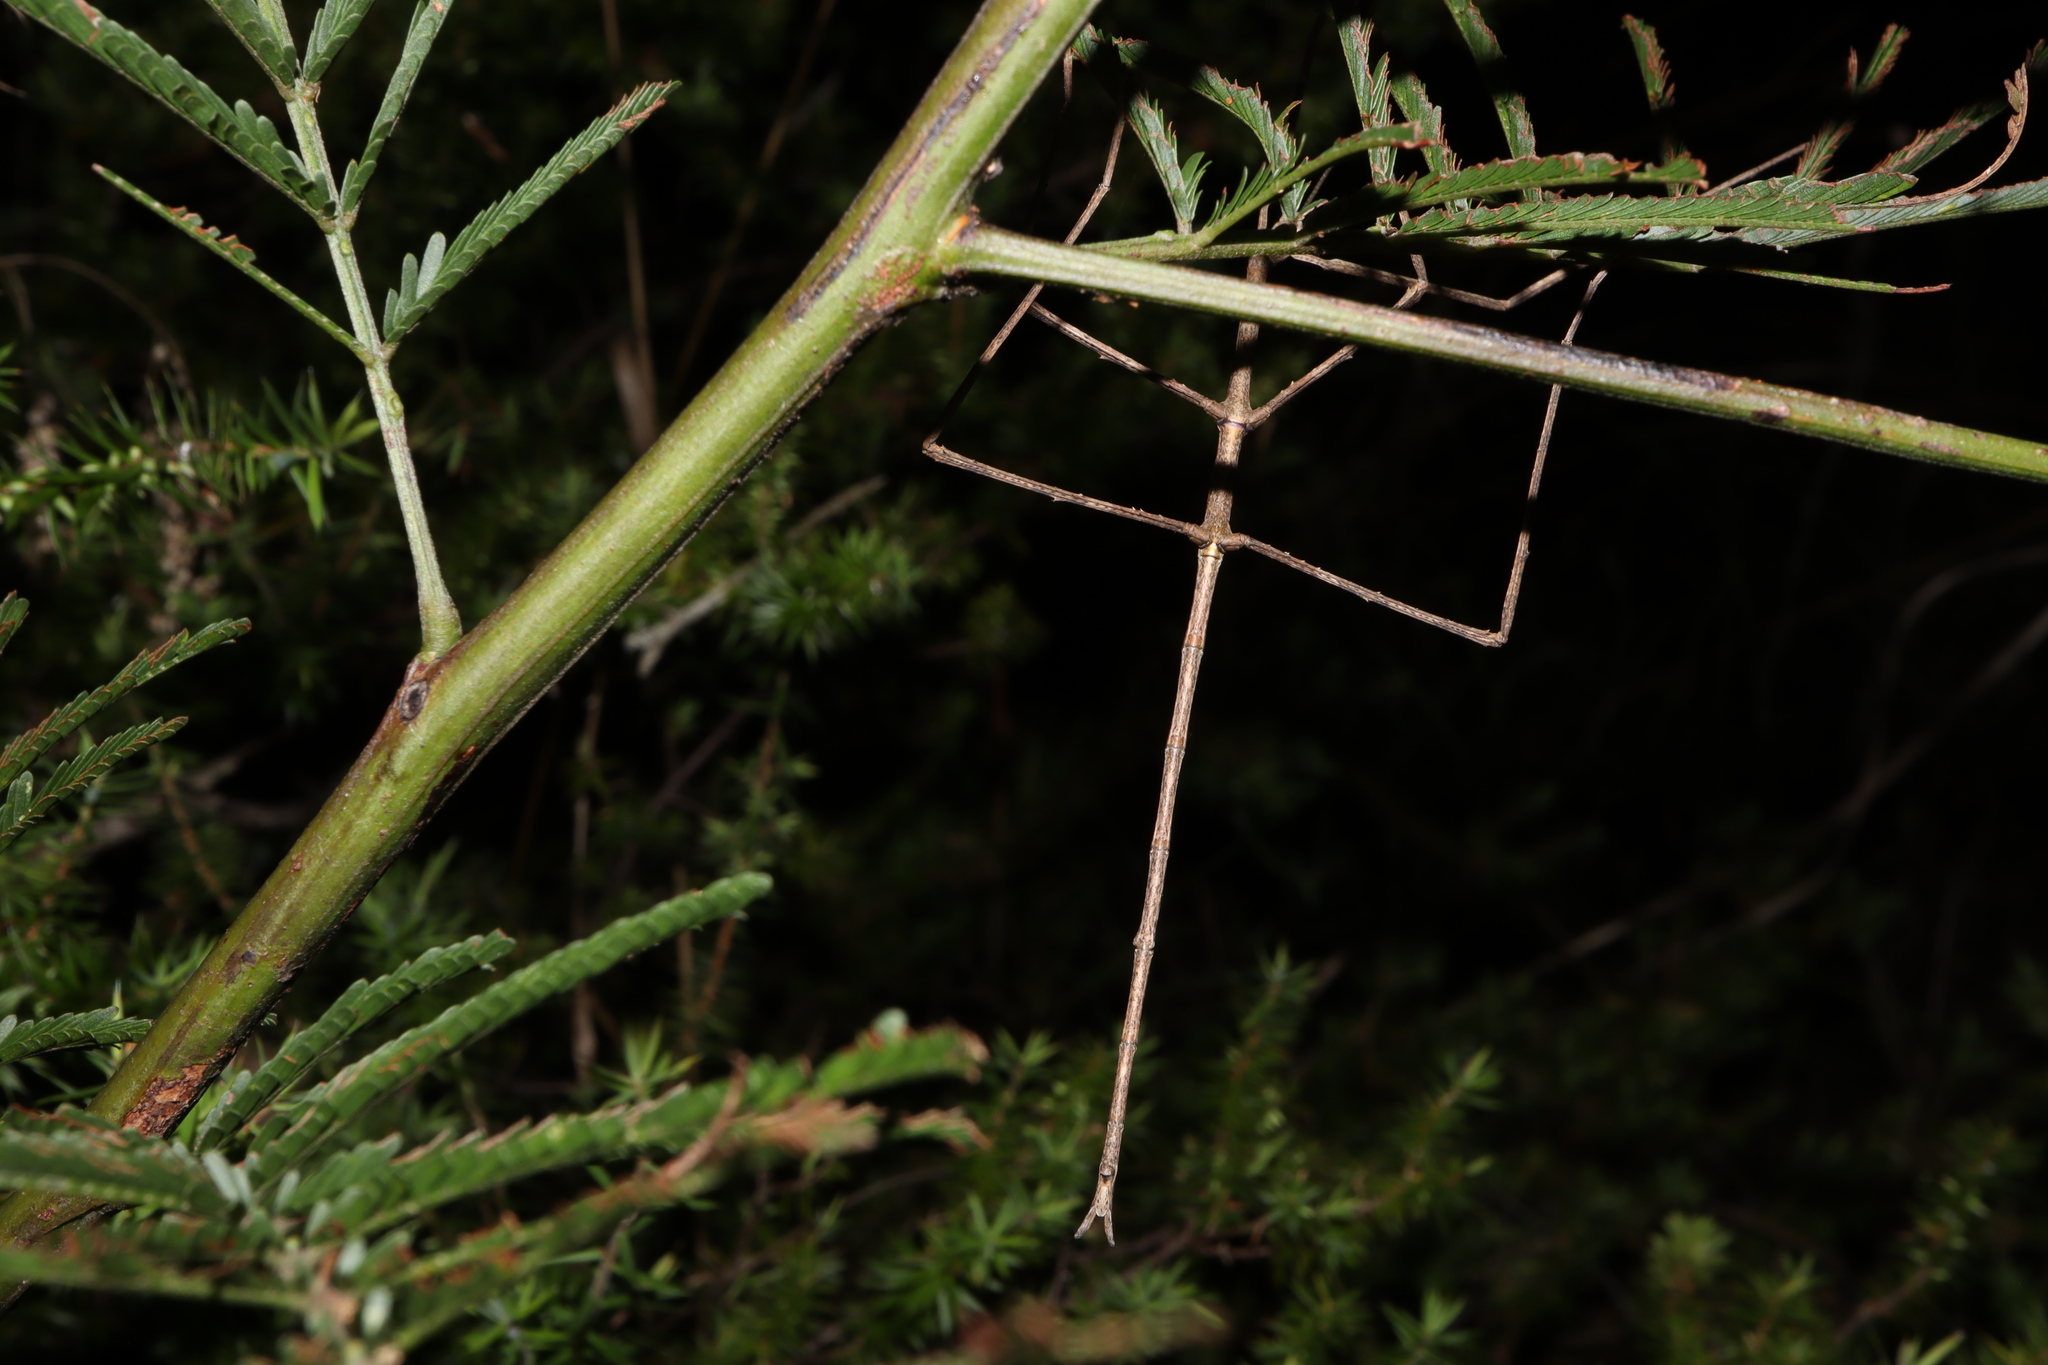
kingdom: Animalia
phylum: Arthropoda
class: Insecta
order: Phasmida
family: Phasmatidae
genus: Ctenomorpha
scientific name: Ctenomorpha marginipennis
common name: Margined-winged stick-insect
